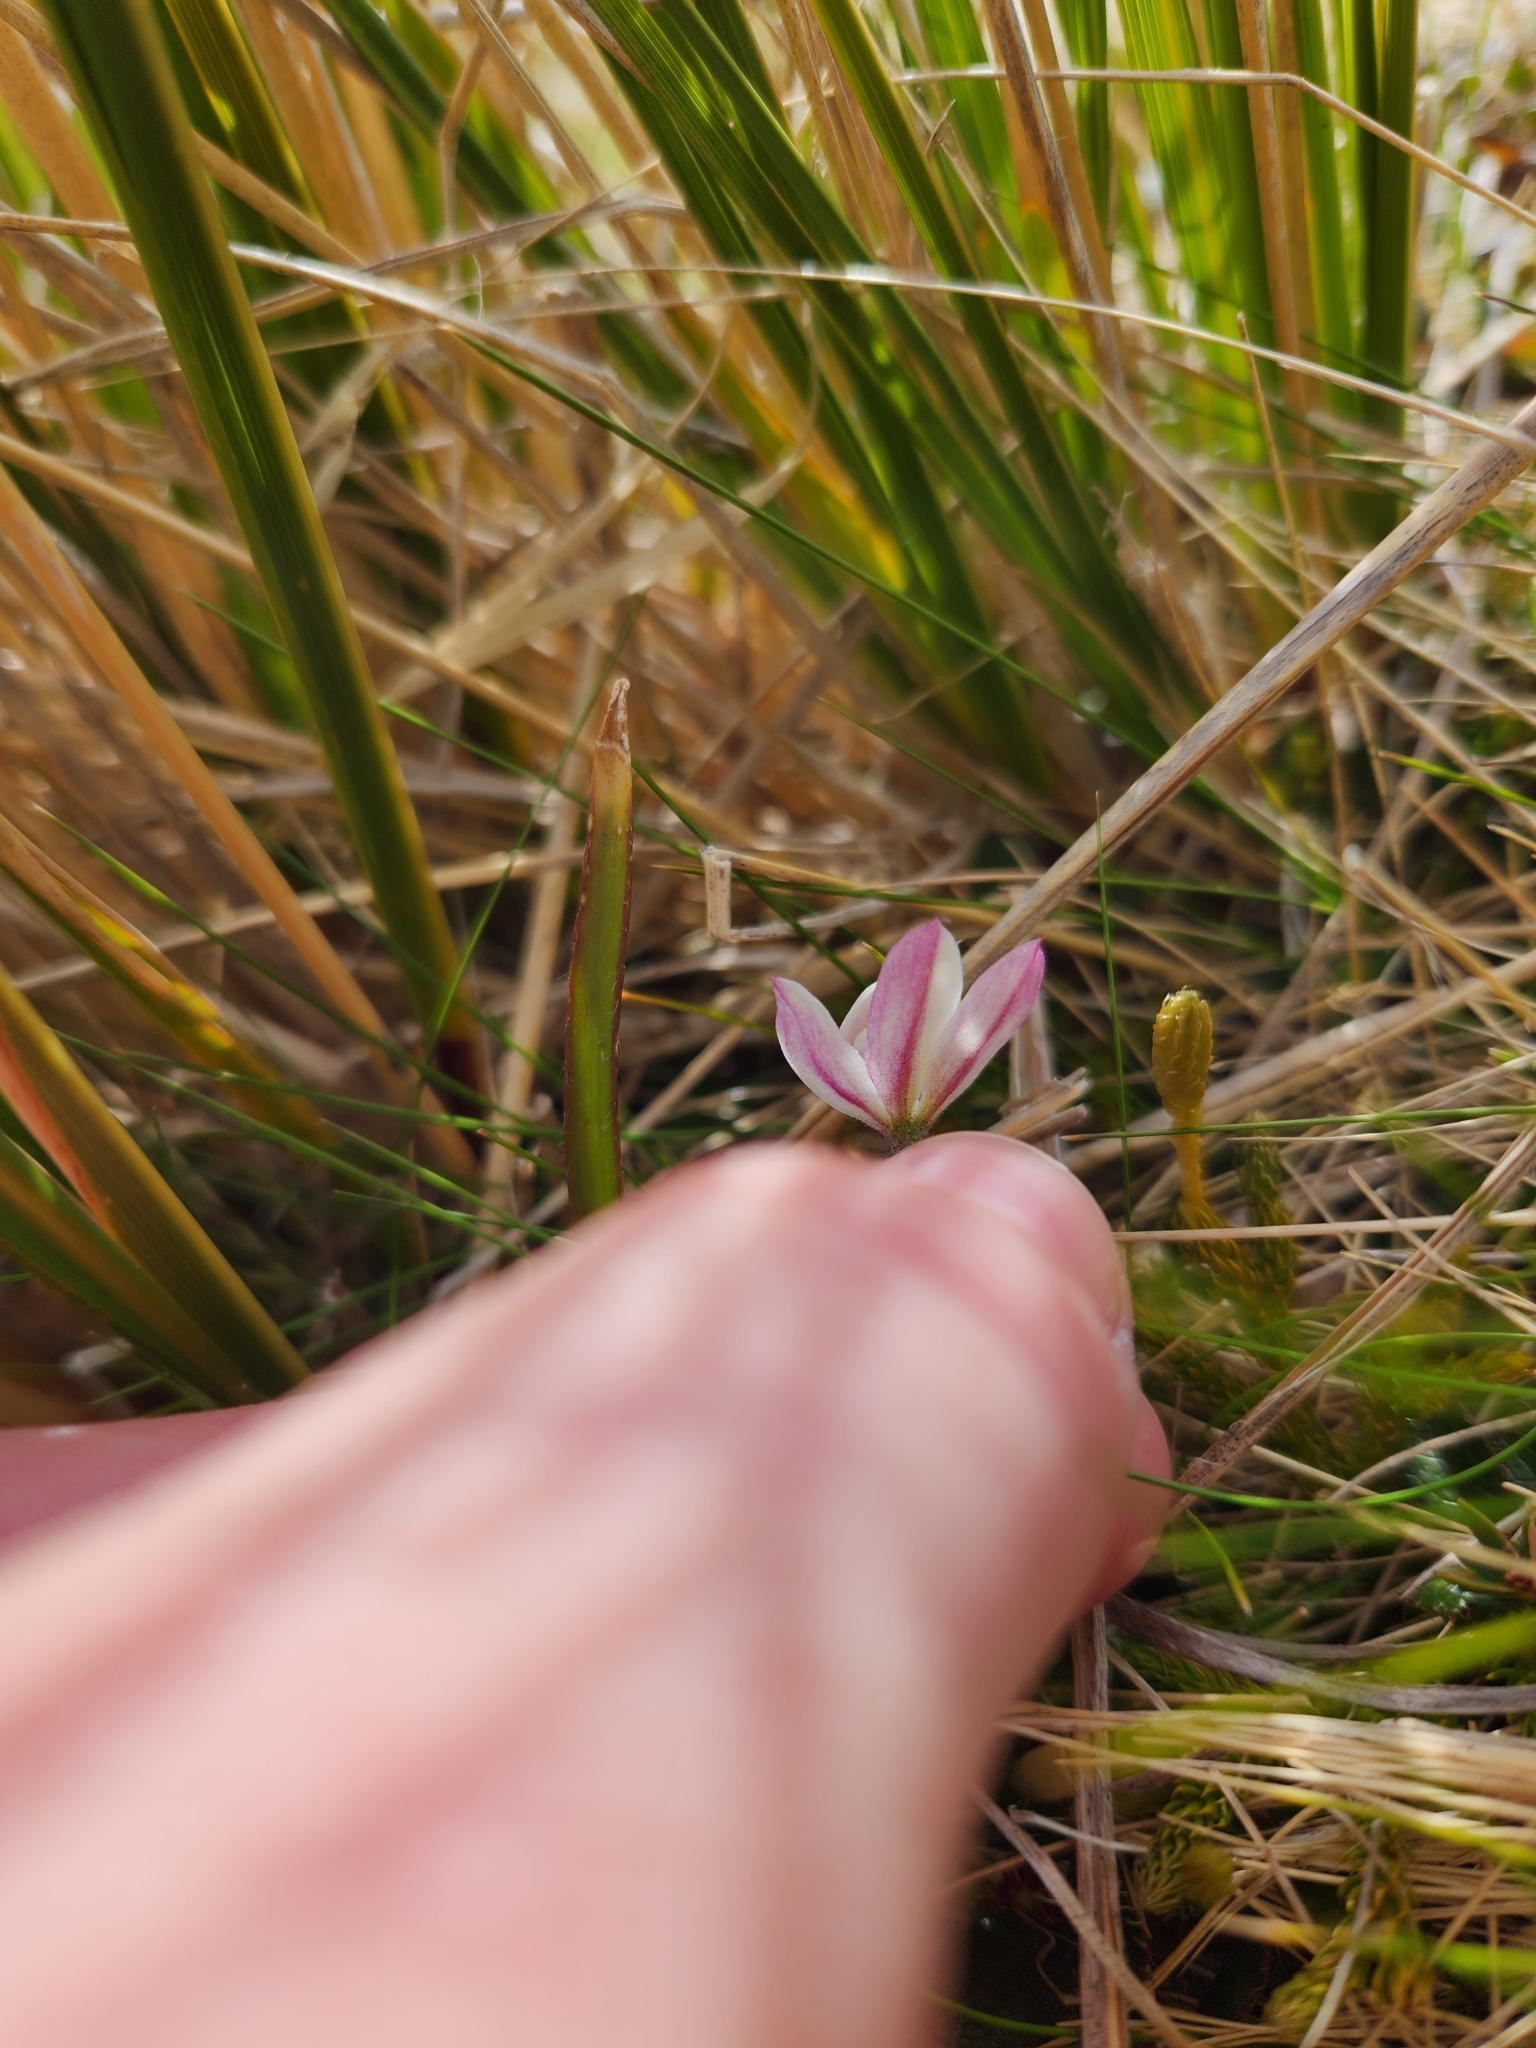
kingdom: Plantae
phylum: Tracheophyta
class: Liliopsida
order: Asparagales
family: Orchidaceae
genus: Caladenia
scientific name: Caladenia lyallii
